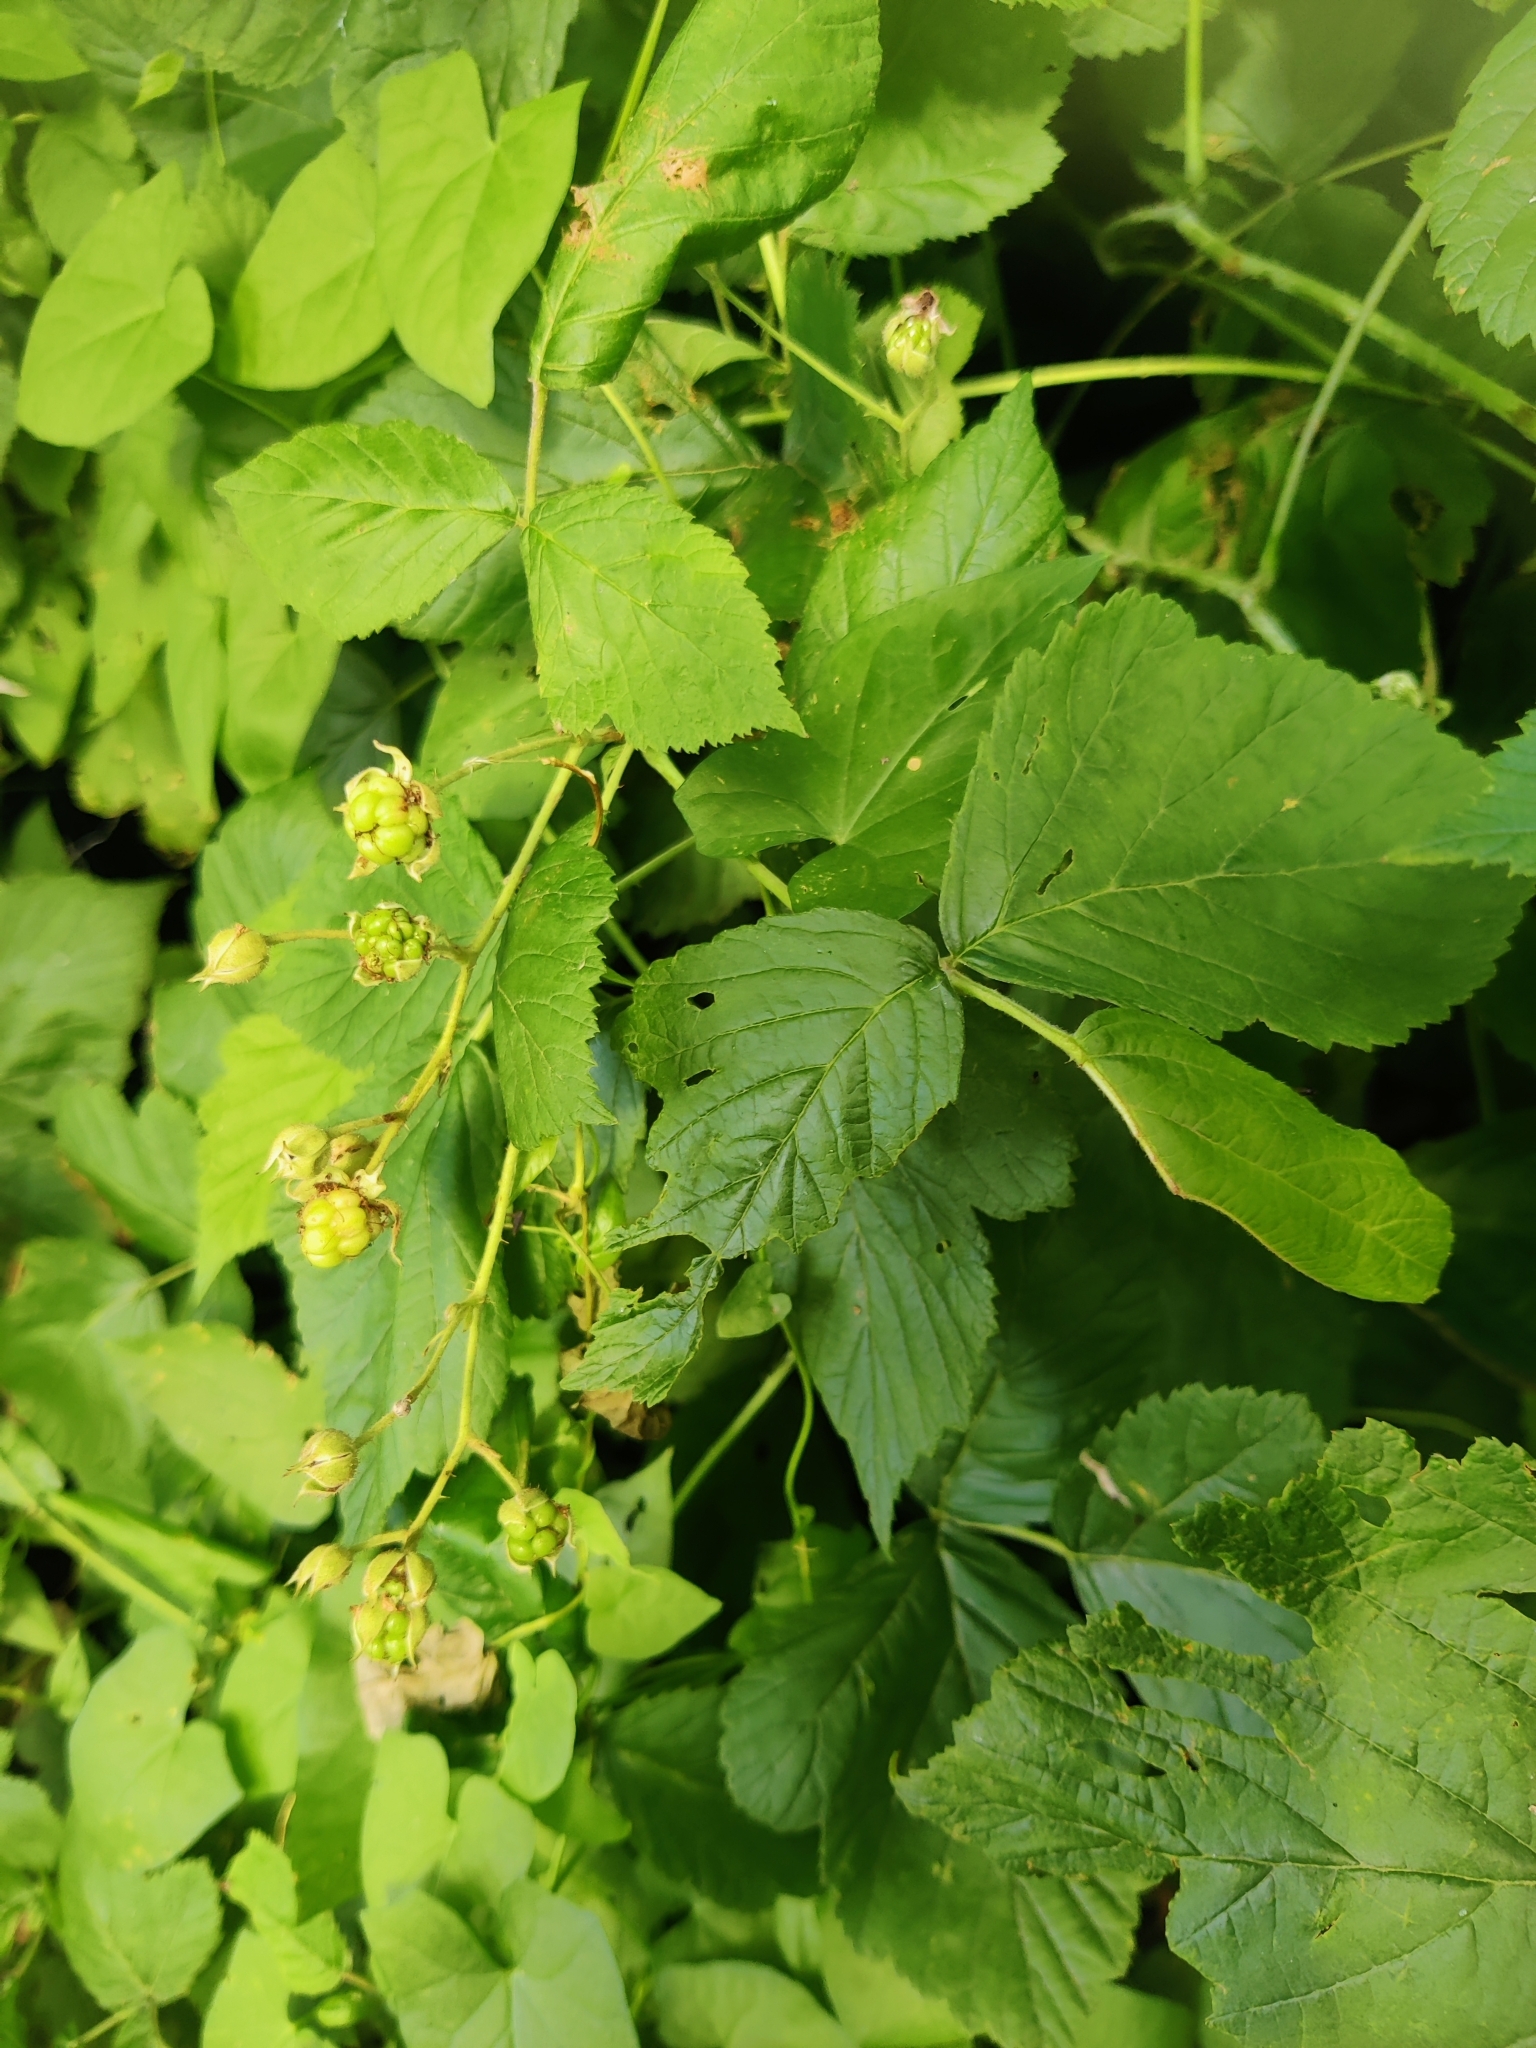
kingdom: Plantae
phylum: Tracheophyta
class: Magnoliopsida
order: Rosales
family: Rosaceae
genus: Rubus
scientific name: Rubus caesius
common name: Dewberry
